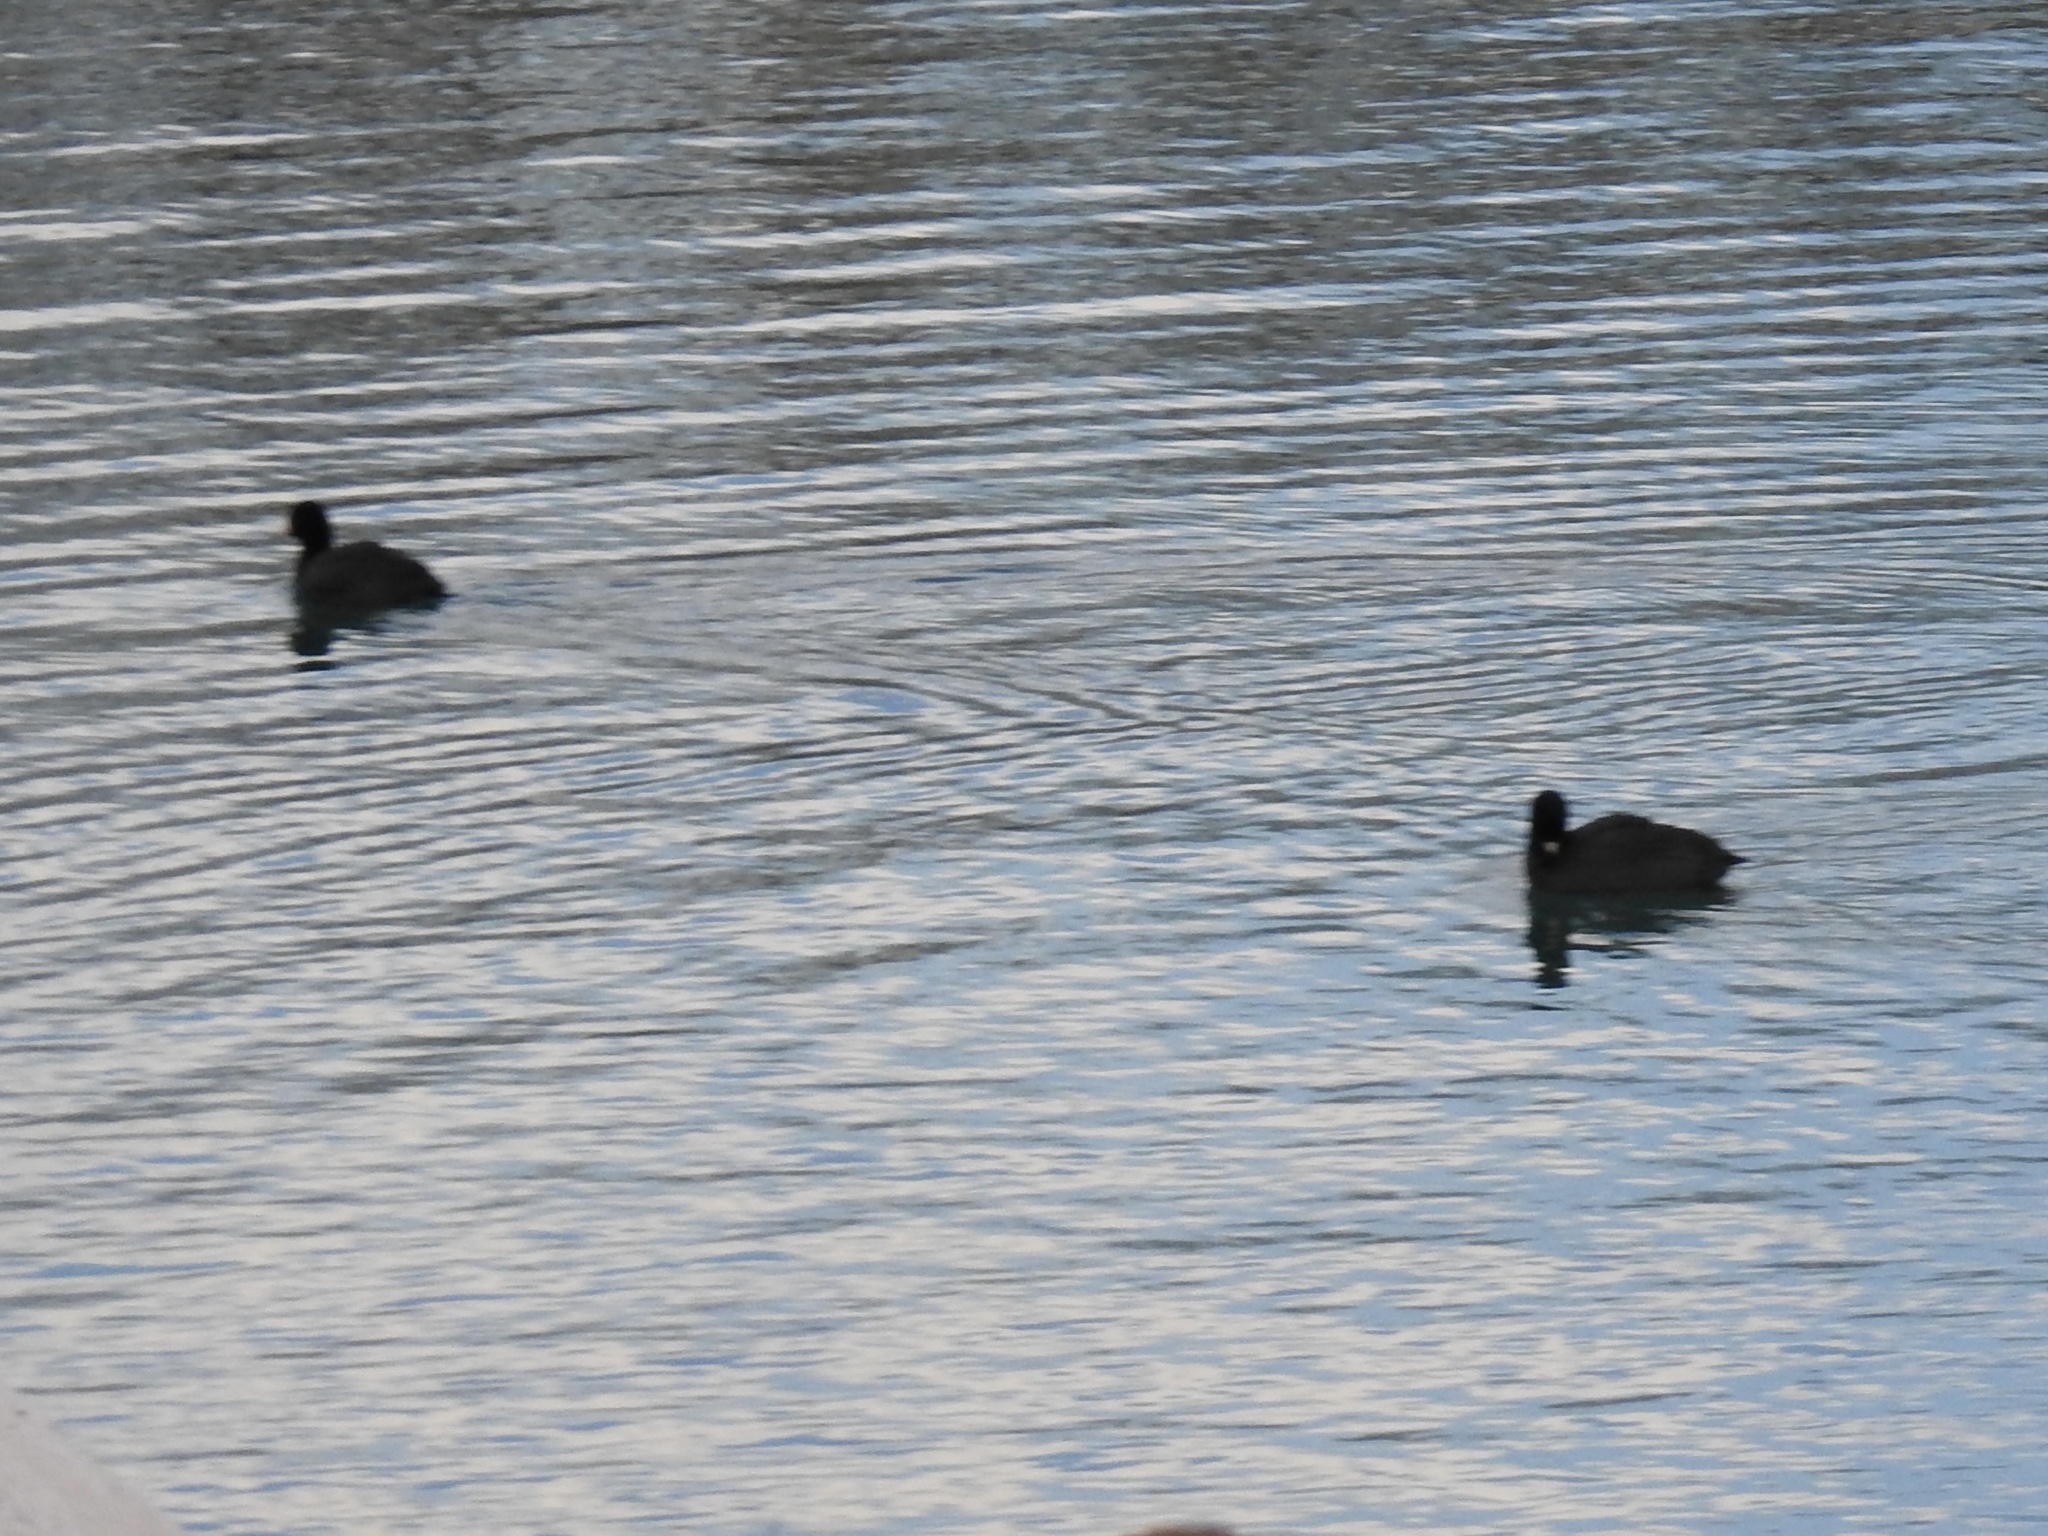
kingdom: Animalia
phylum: Chordata
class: Aves
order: Gruiformes
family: Rallidae
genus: Fulica
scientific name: Fulica americana
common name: American coot
